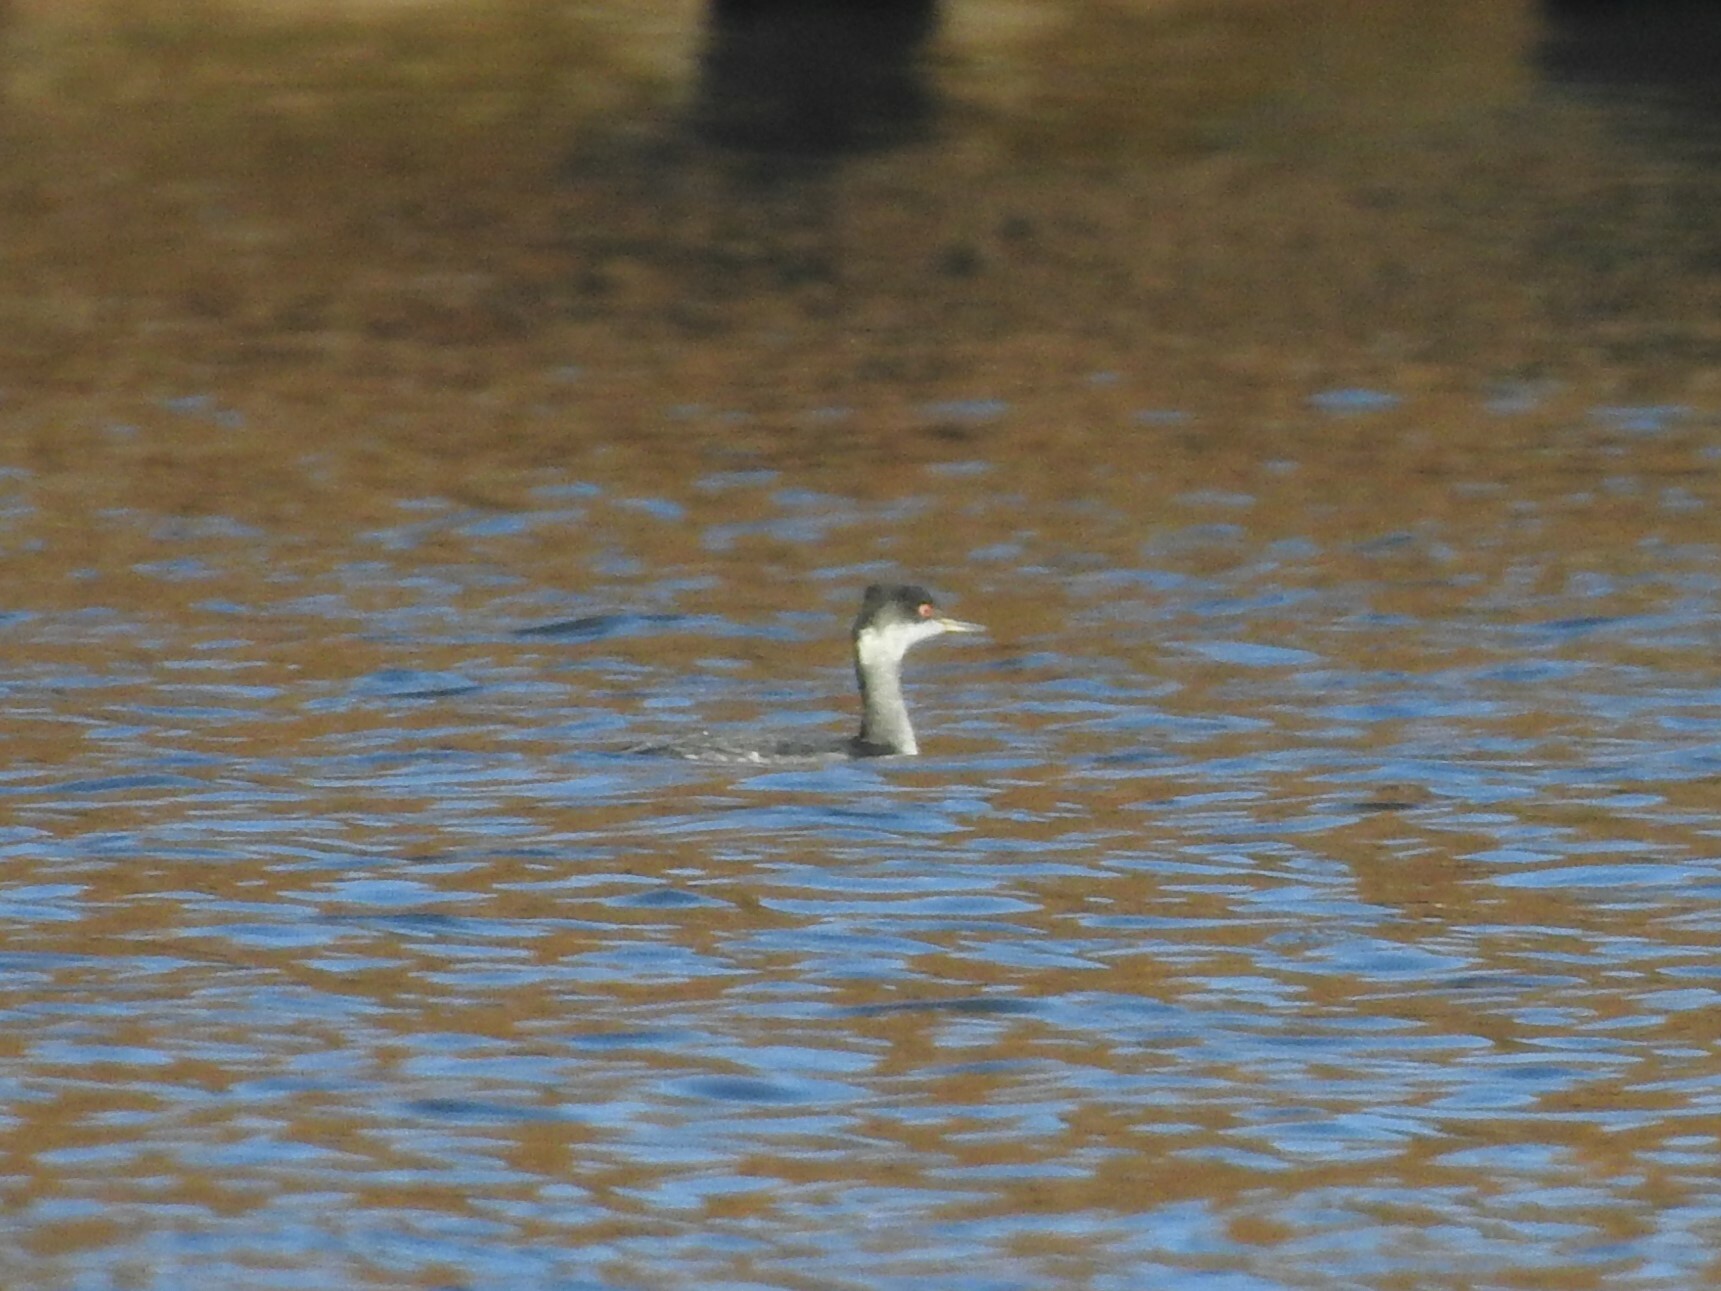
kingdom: Animalia
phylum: Chordata
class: Aves
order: Podicipediformes
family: Podicipedidae
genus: Podiceps
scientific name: Podiceps nigricollis
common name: Black-necked grebe
